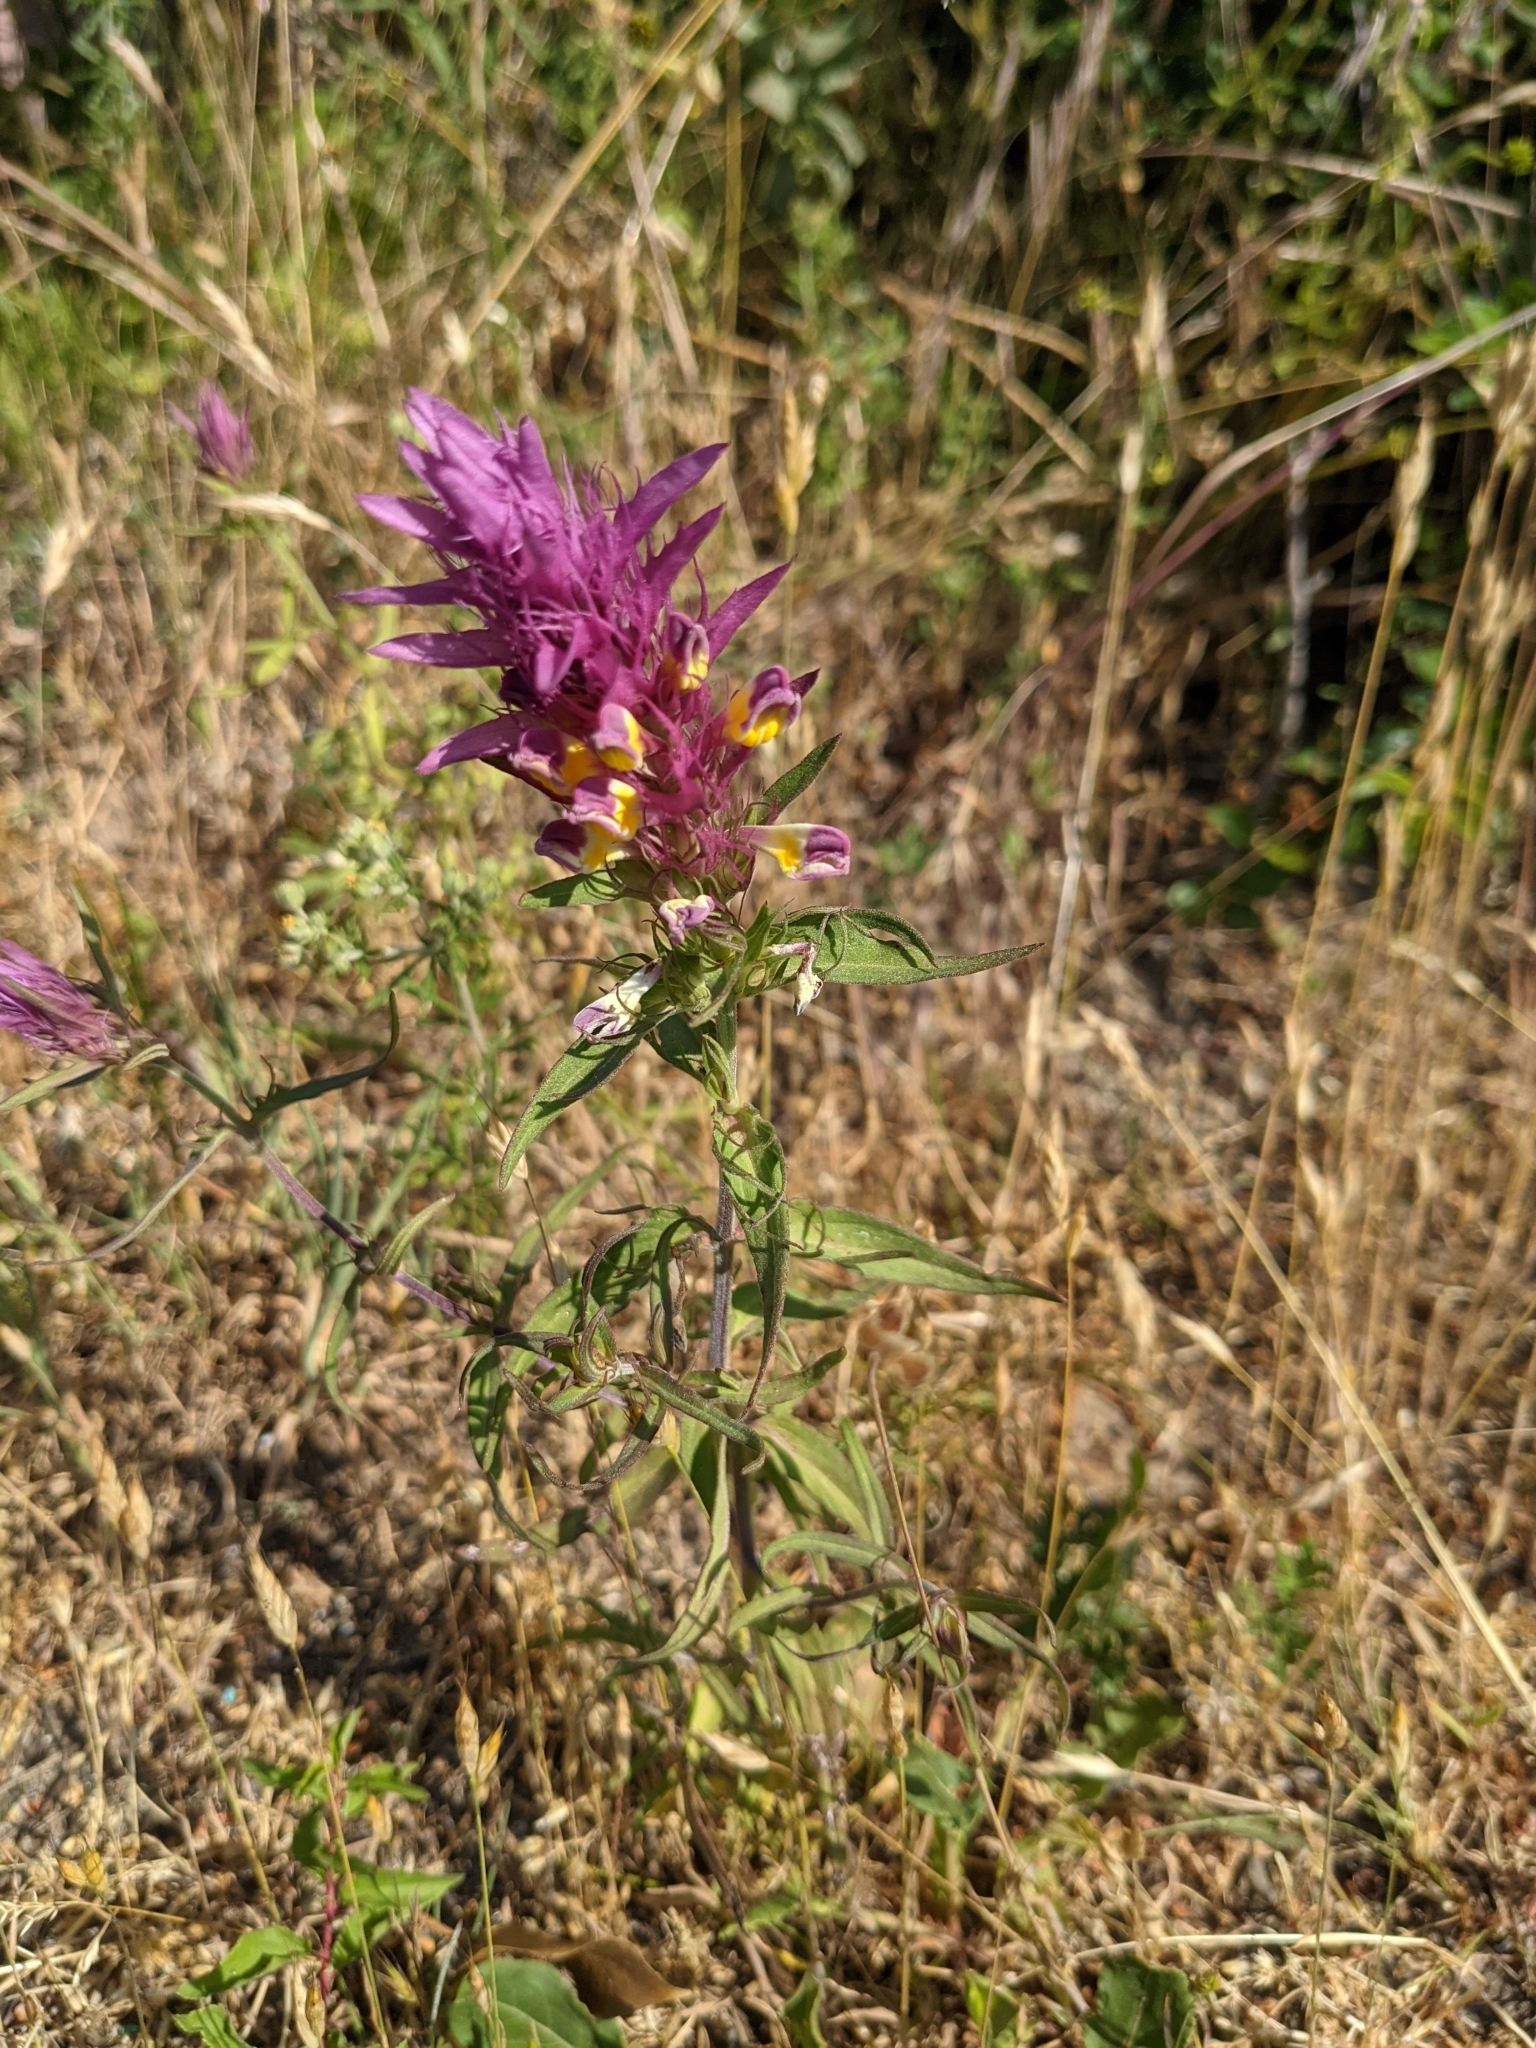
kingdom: Plantae
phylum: Tracheophyta
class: Magnoliopsida
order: Lamiales
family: Orobanchaceae
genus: Melampyrum
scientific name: Melampyrum arvense
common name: Field cow-wheat
